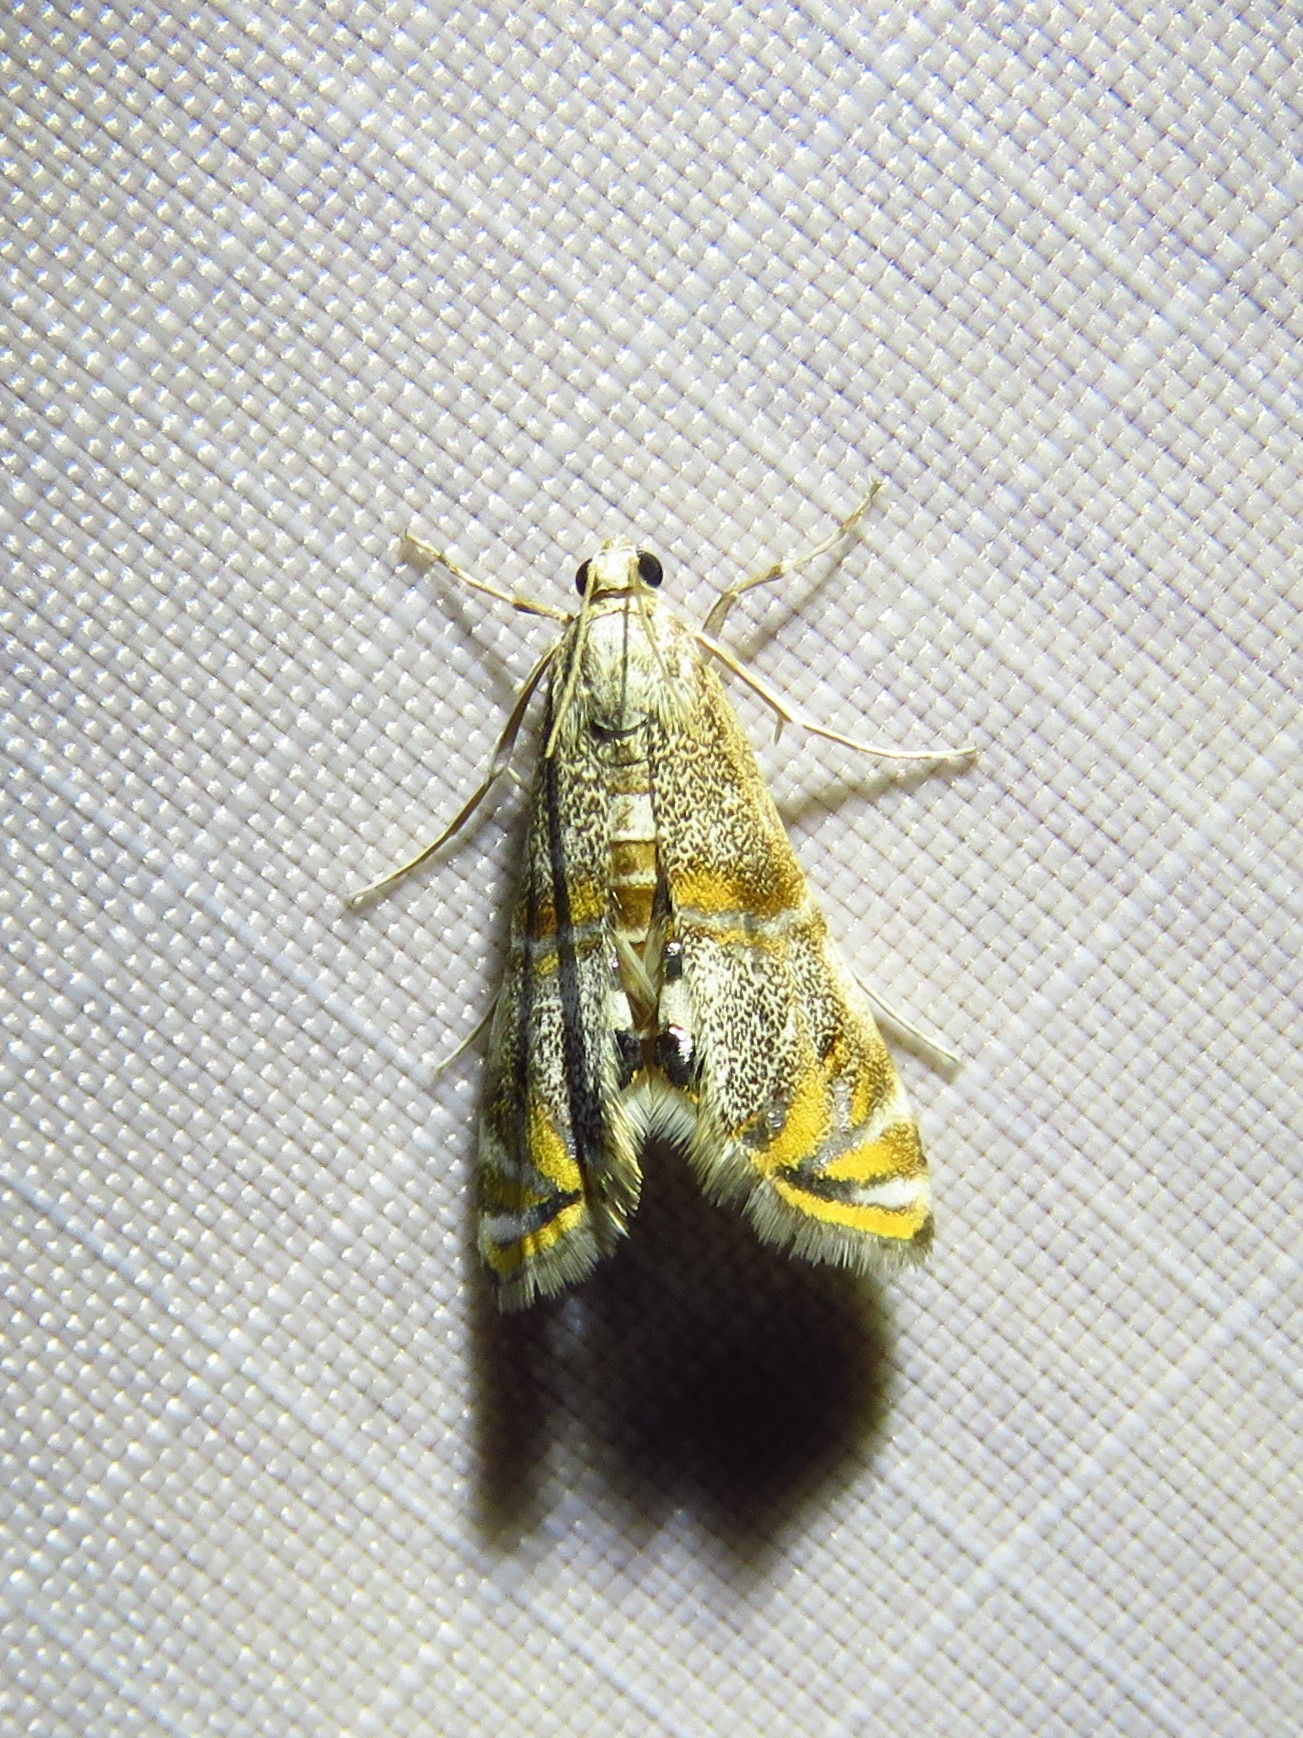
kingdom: Animalia
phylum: Arthropoda
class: Insecta
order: Lepidoptera
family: Crambidae
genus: Petrophila
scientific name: Petrophila bifascialis
